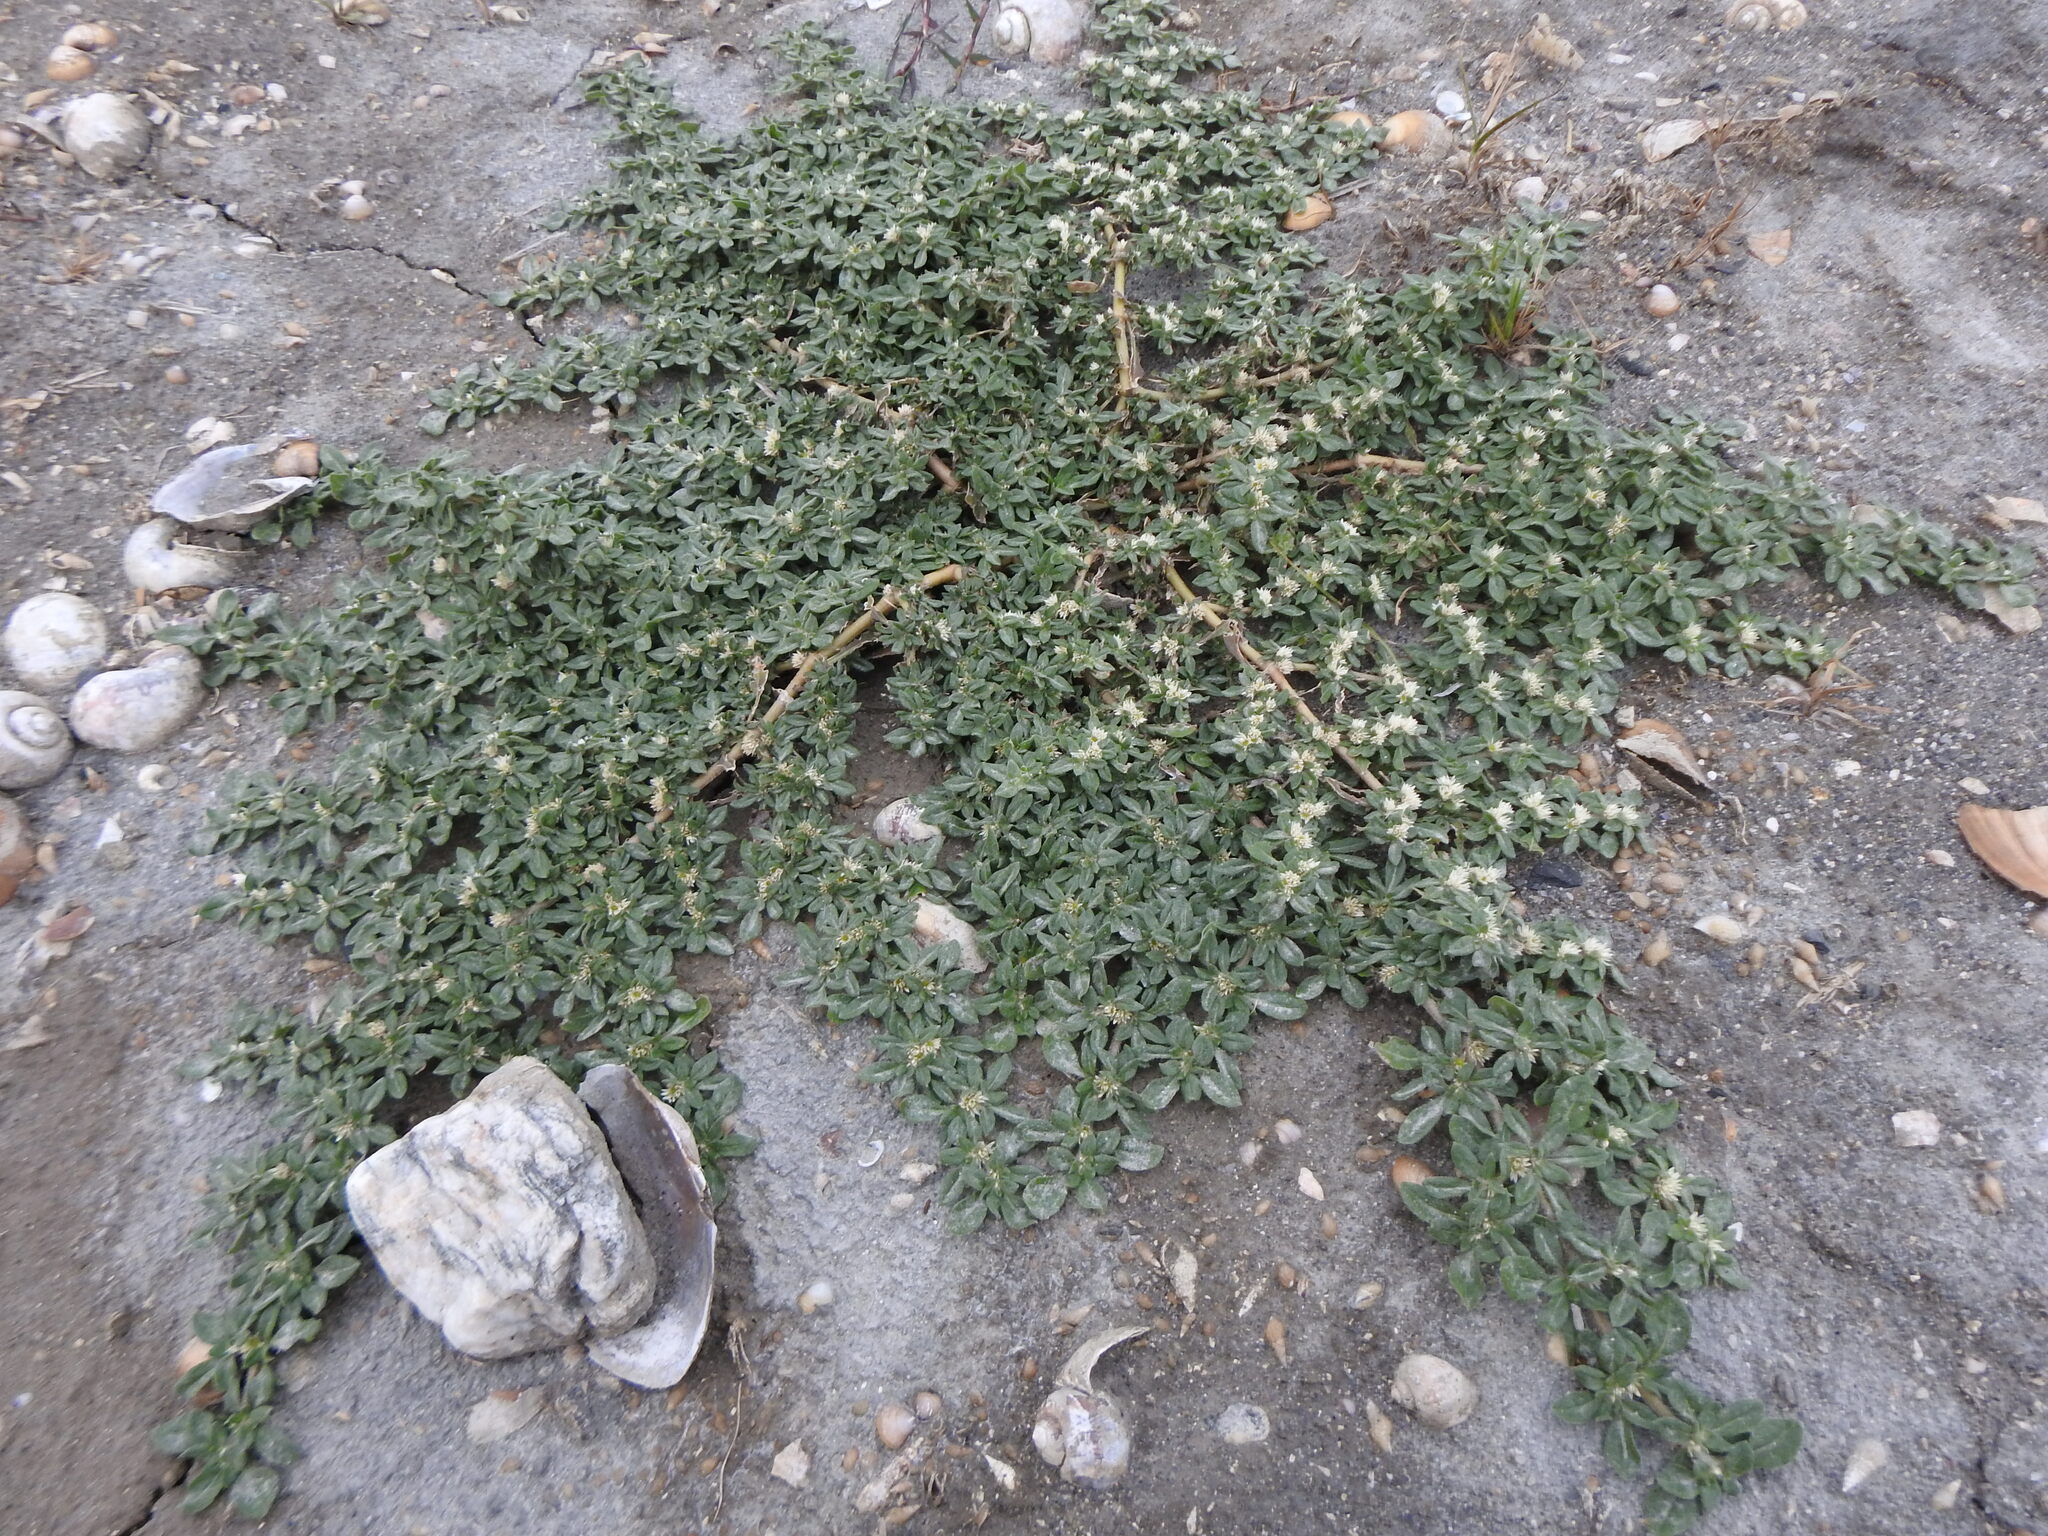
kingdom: Plantae
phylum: Tracheophyta
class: Magnoliopsida
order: Caryophyllales
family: Amaranthaceae
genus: Alternanthera
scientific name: Alternanthera paronychioides
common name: Smooth joyweed
